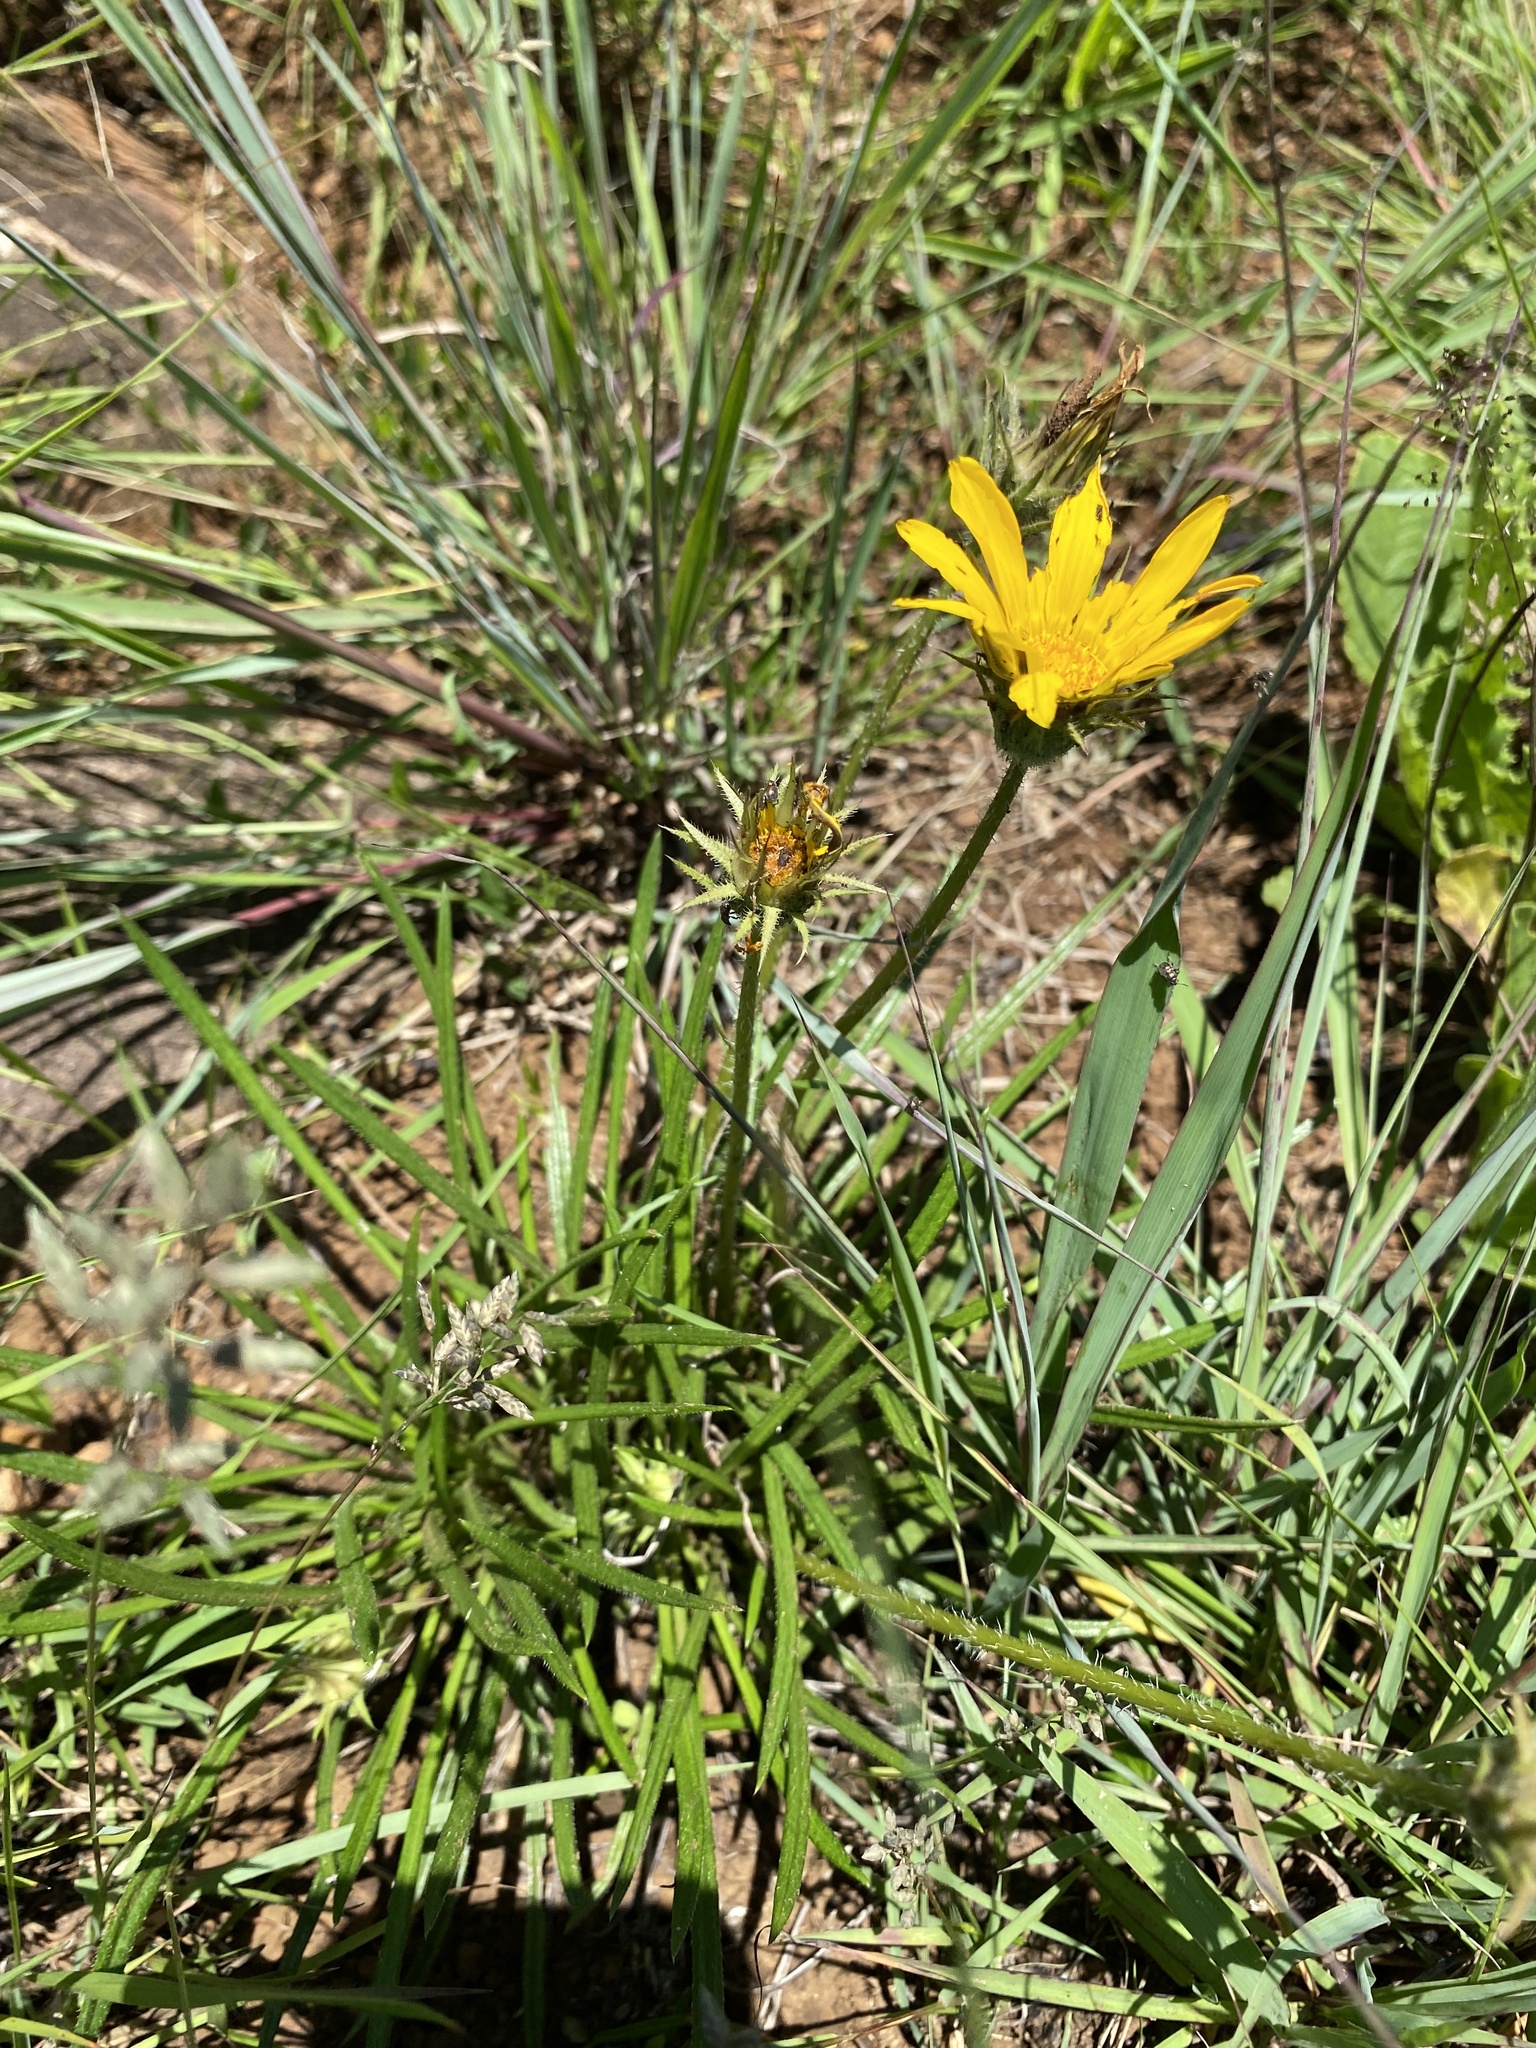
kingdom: Plantae
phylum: Tracheophyta
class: Magnoliopsida
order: Asterales
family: Asteraceae
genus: Gazania
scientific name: Gazania linearis
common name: Treasureflower
